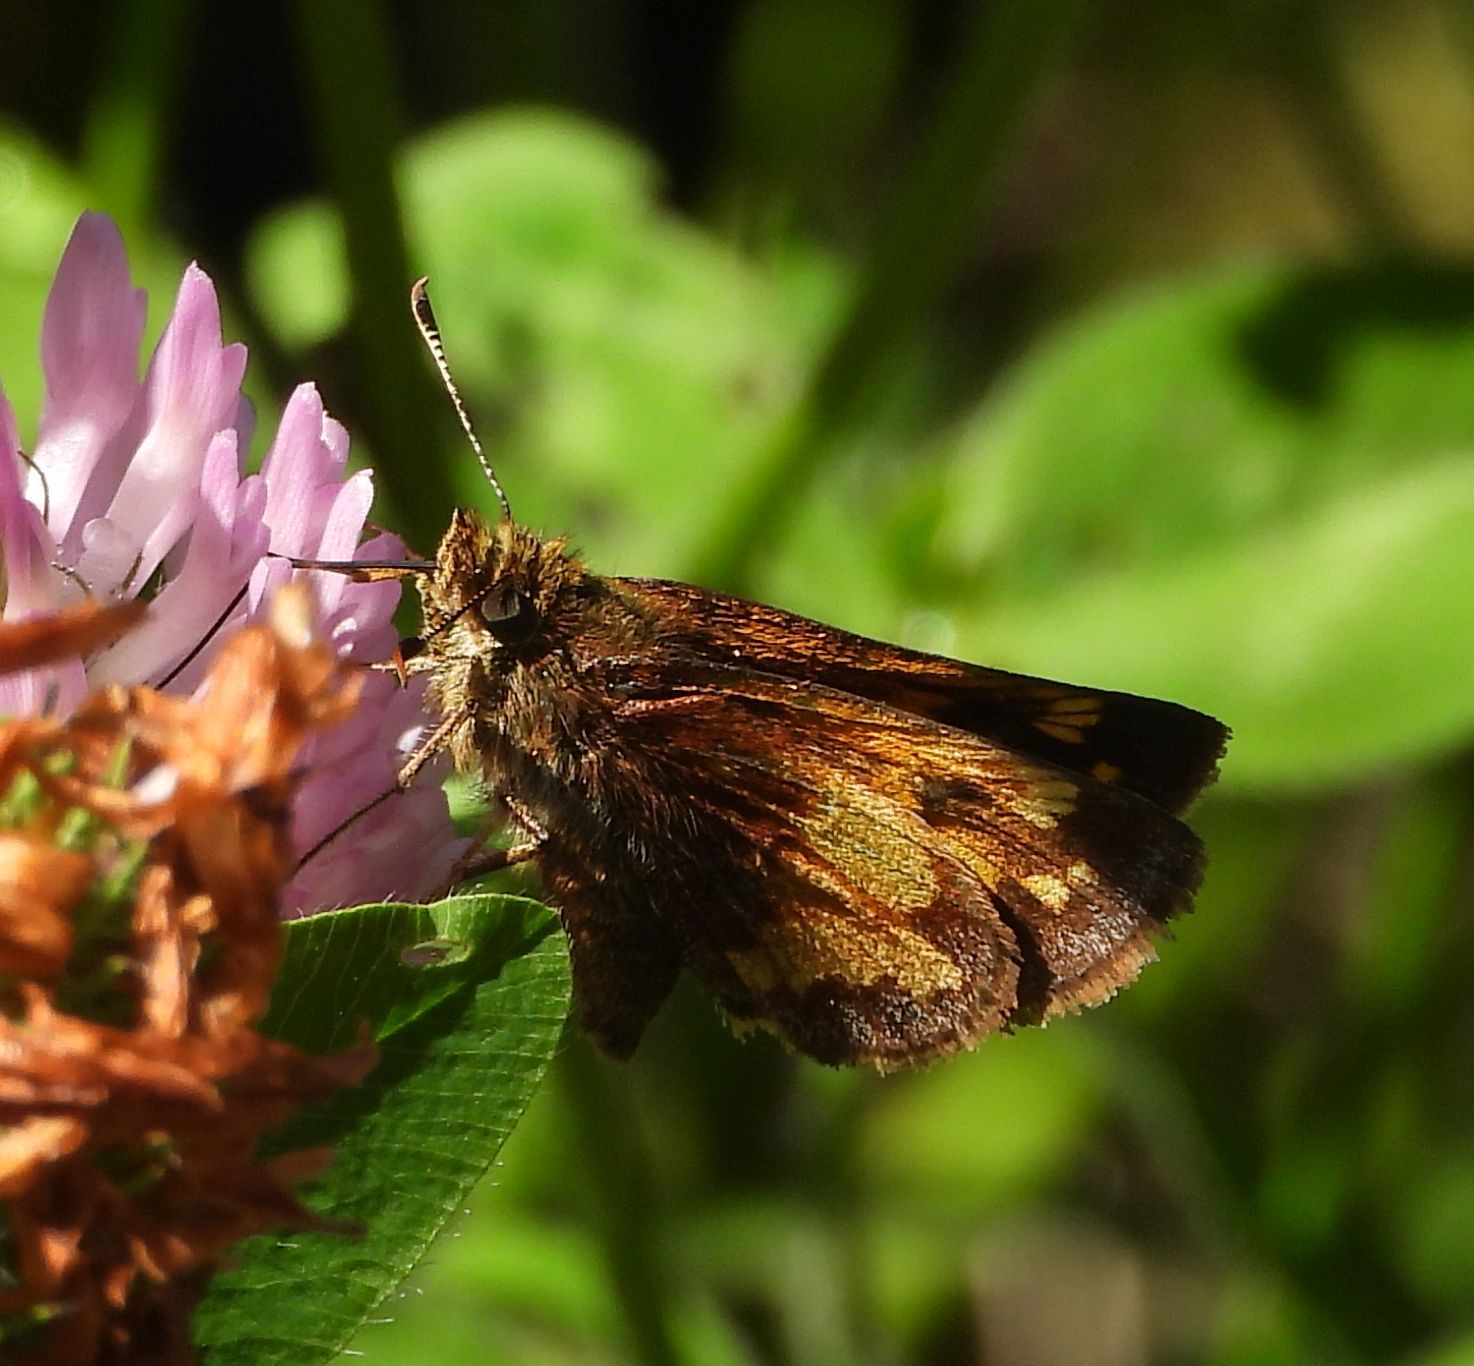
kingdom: Animalia
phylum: Arthropoda
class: Insecta
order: Lepidoptera
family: Hesperiidae
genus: Lon
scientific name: Lon hobomok
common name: Hobomok skipper
